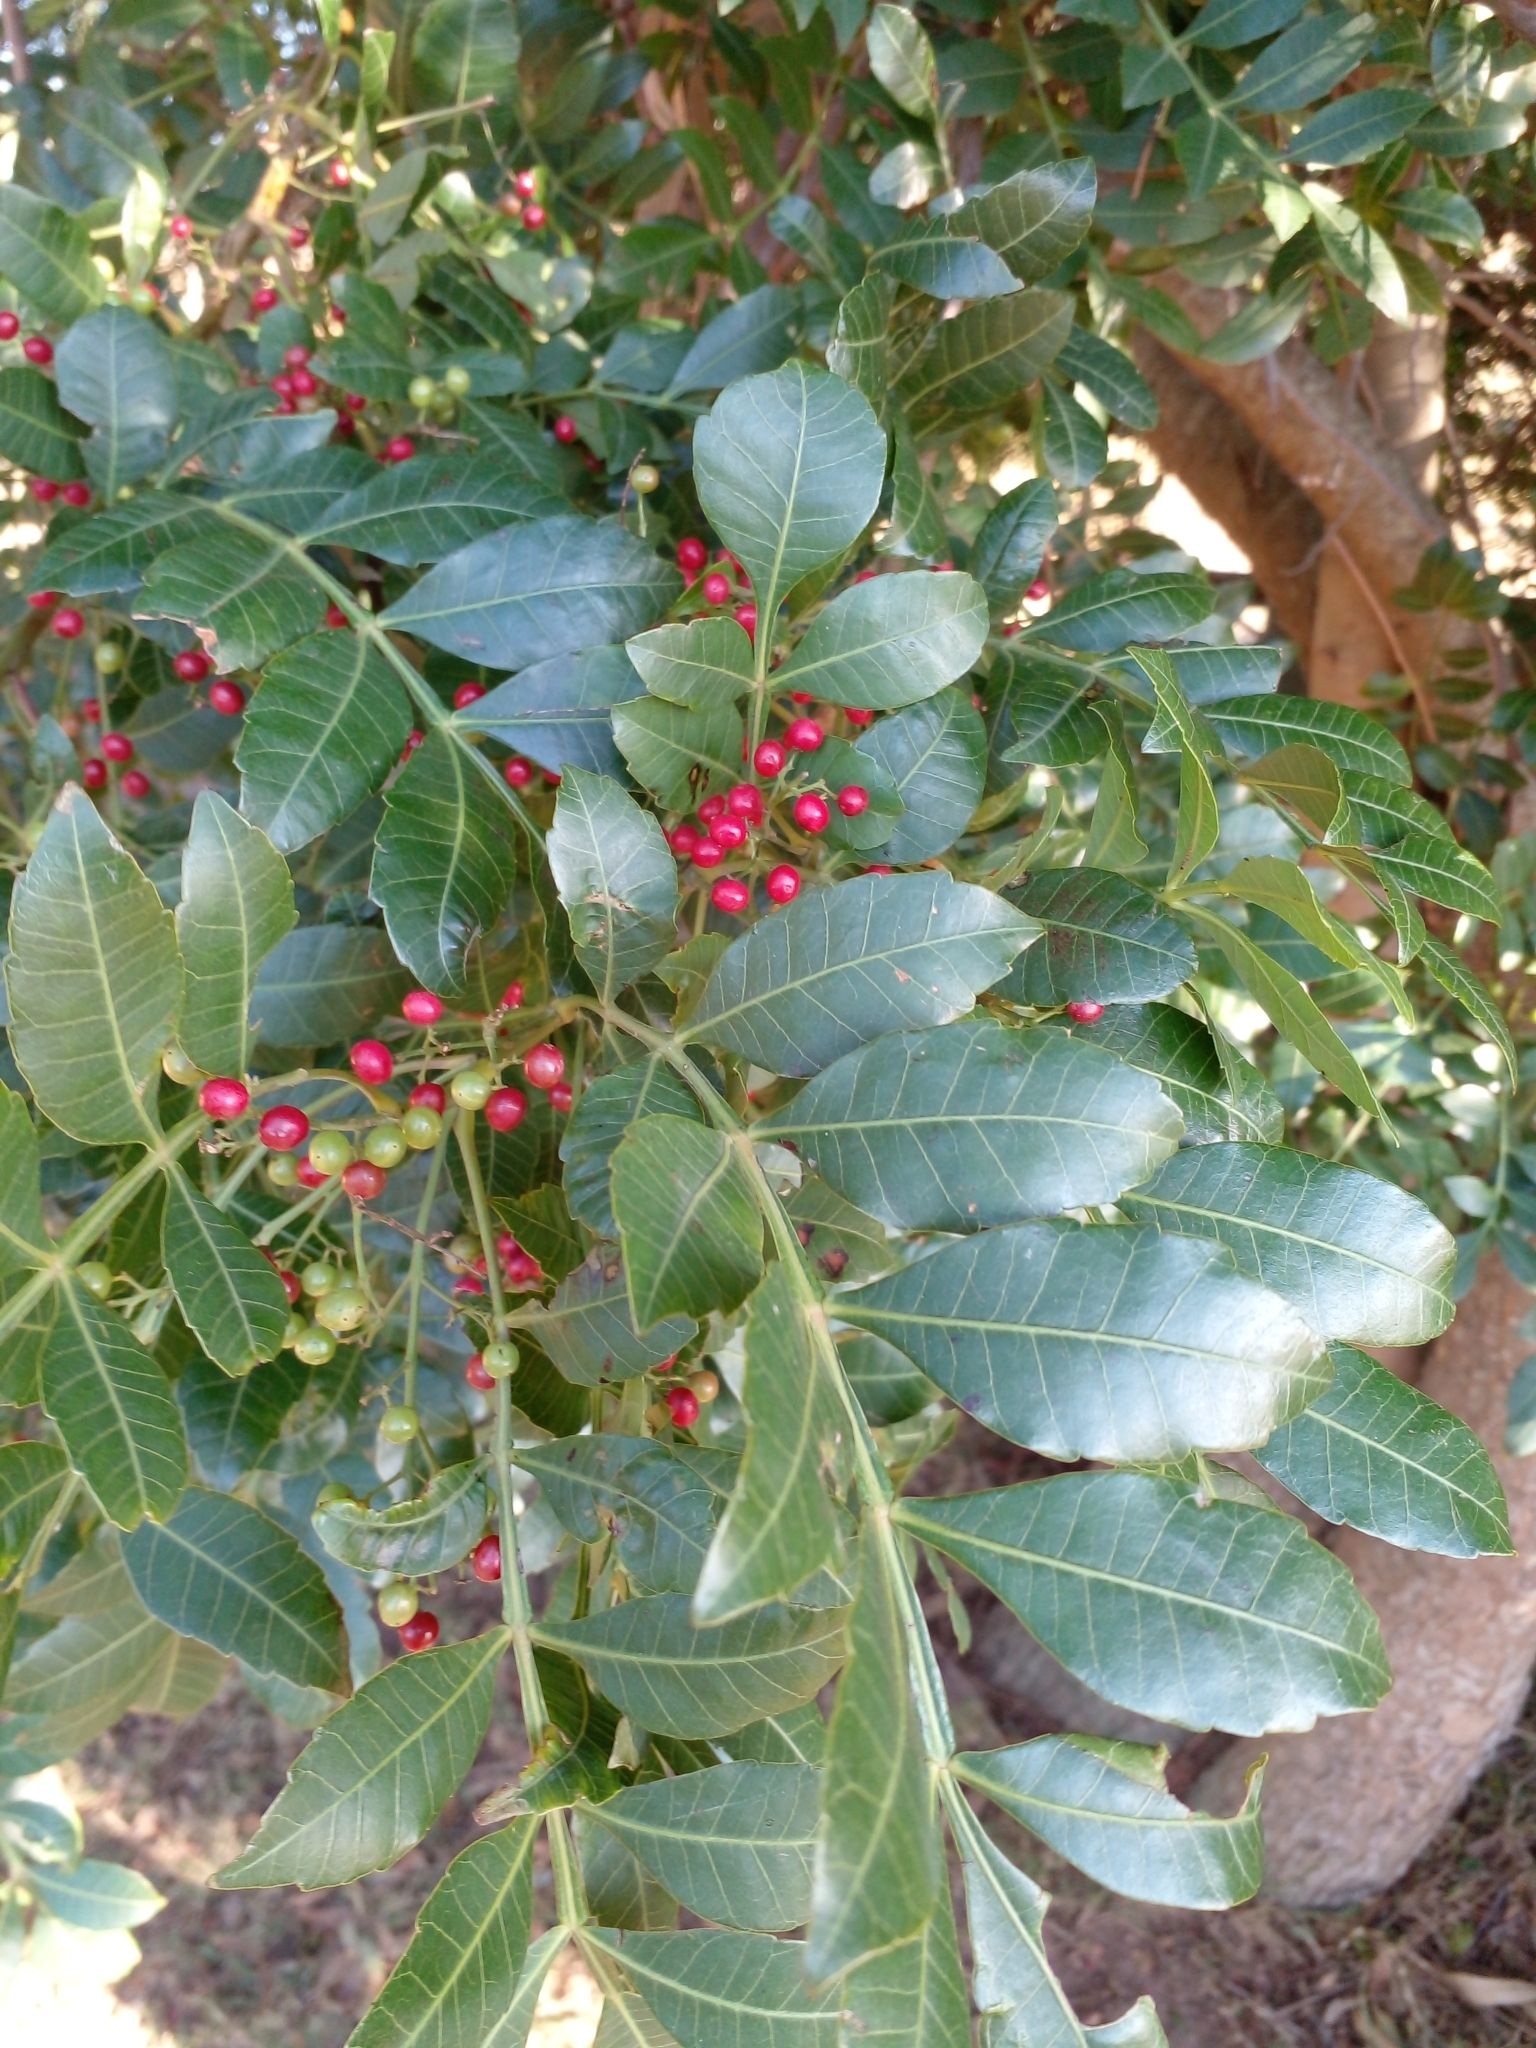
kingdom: Plantae
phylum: Tracheophyta
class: Magnoliopsida
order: Sapindales
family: Anacardiaceae
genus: Schinus
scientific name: Schinus terebinthifolia
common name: Brazilian peppertree
